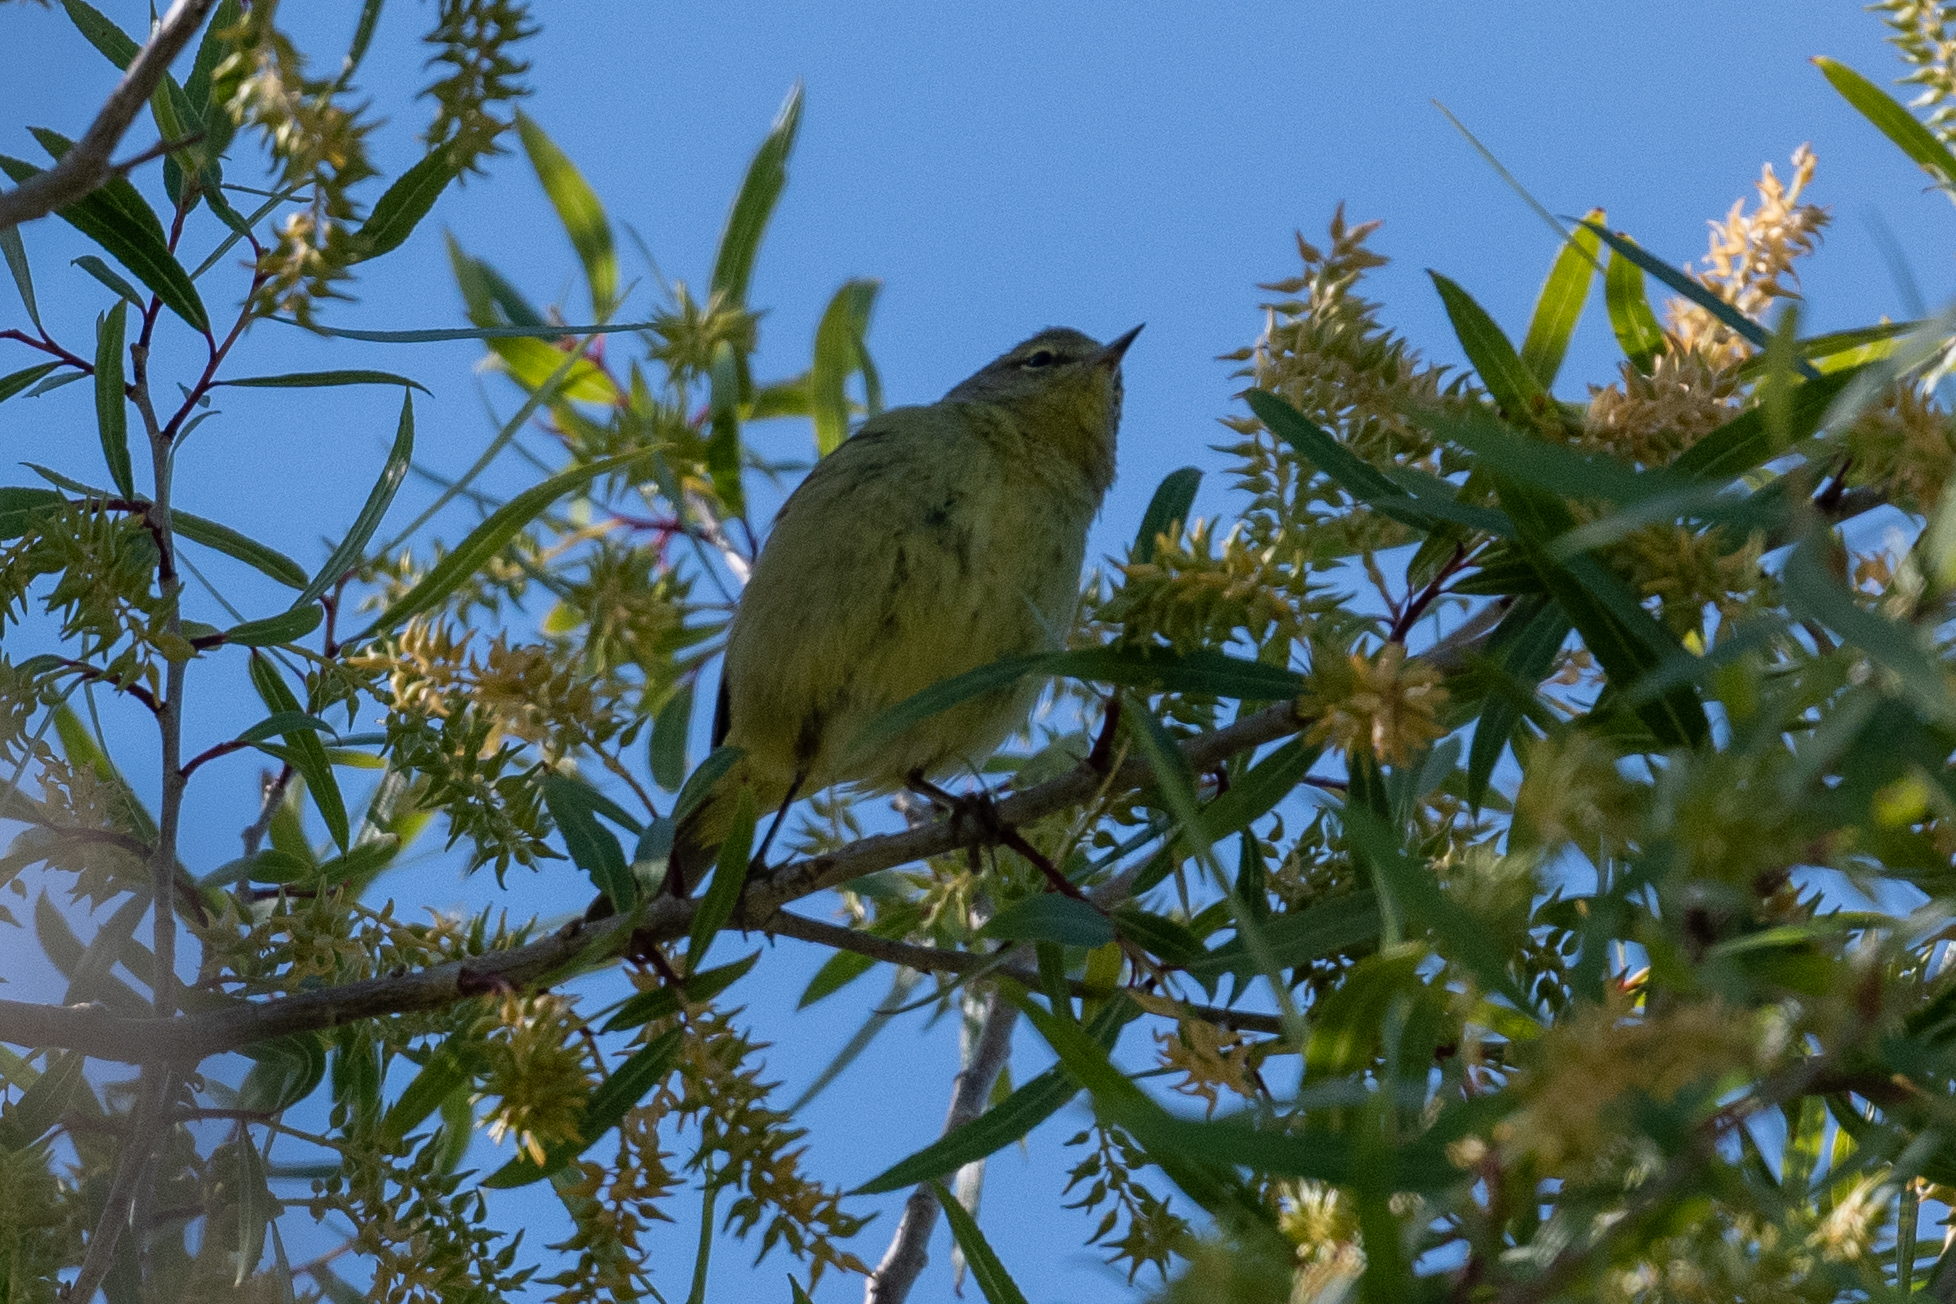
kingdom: Animalia
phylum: Chordata
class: Aves
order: Passeriformes
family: Parulidae
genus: Leiothlypis
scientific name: Leiothlypis celata
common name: Orange-crowned warbler
